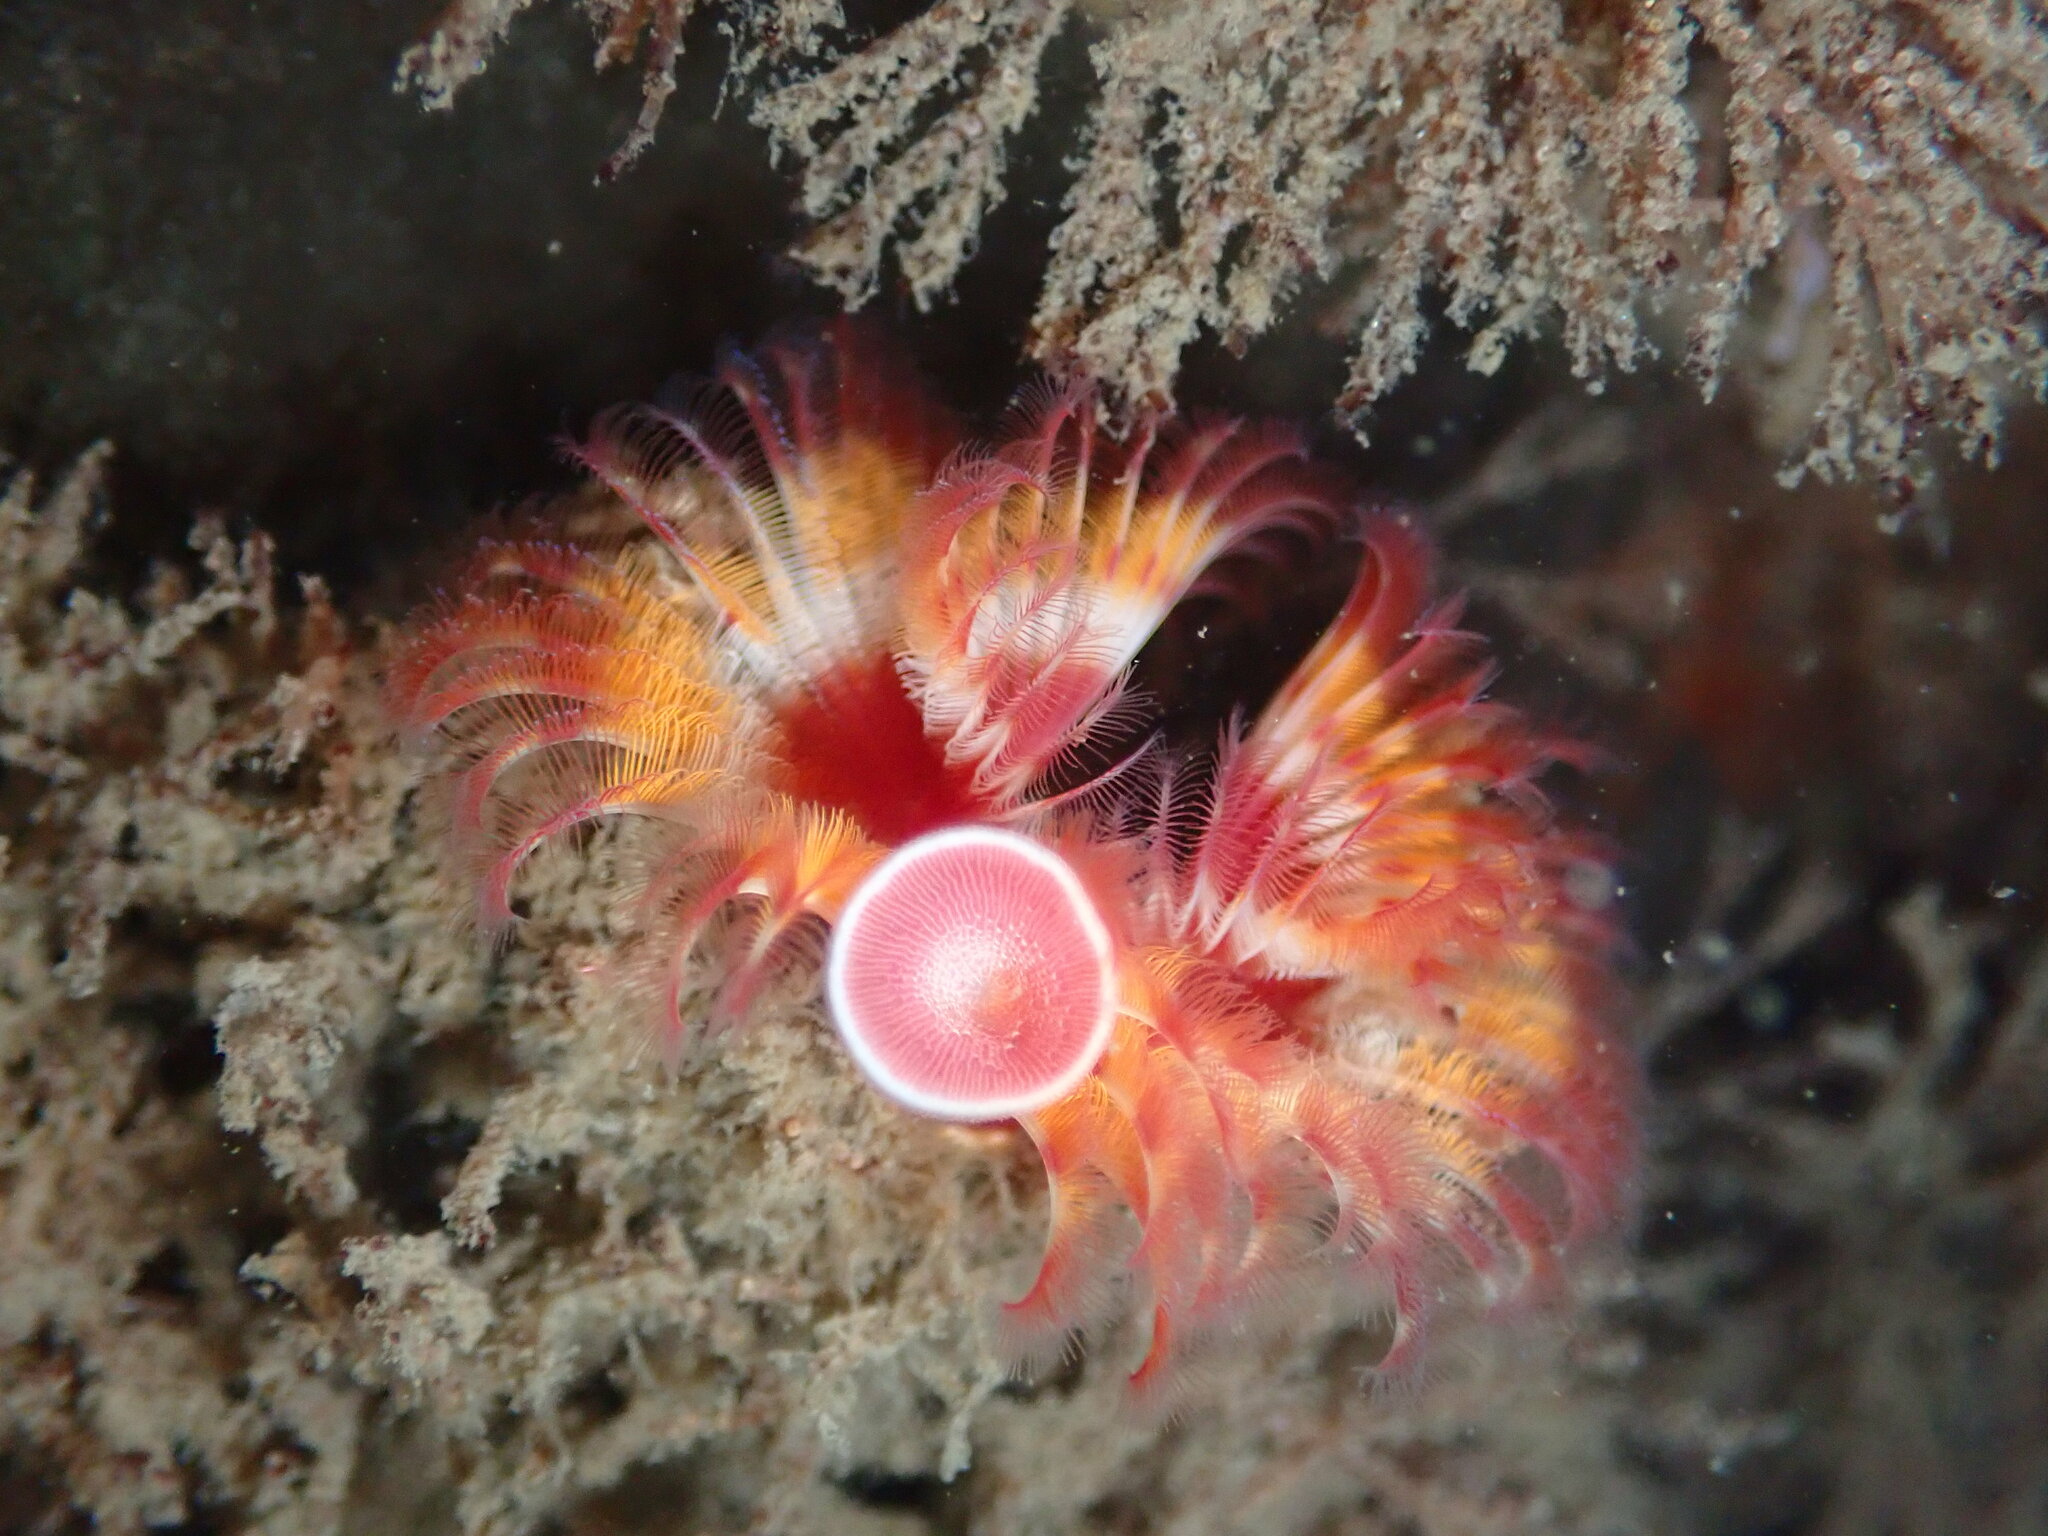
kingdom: Animalia
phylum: Annelida
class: Polychaeta
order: Sabellida
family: Serpulidae
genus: Serpula
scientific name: Serpula columbiana
